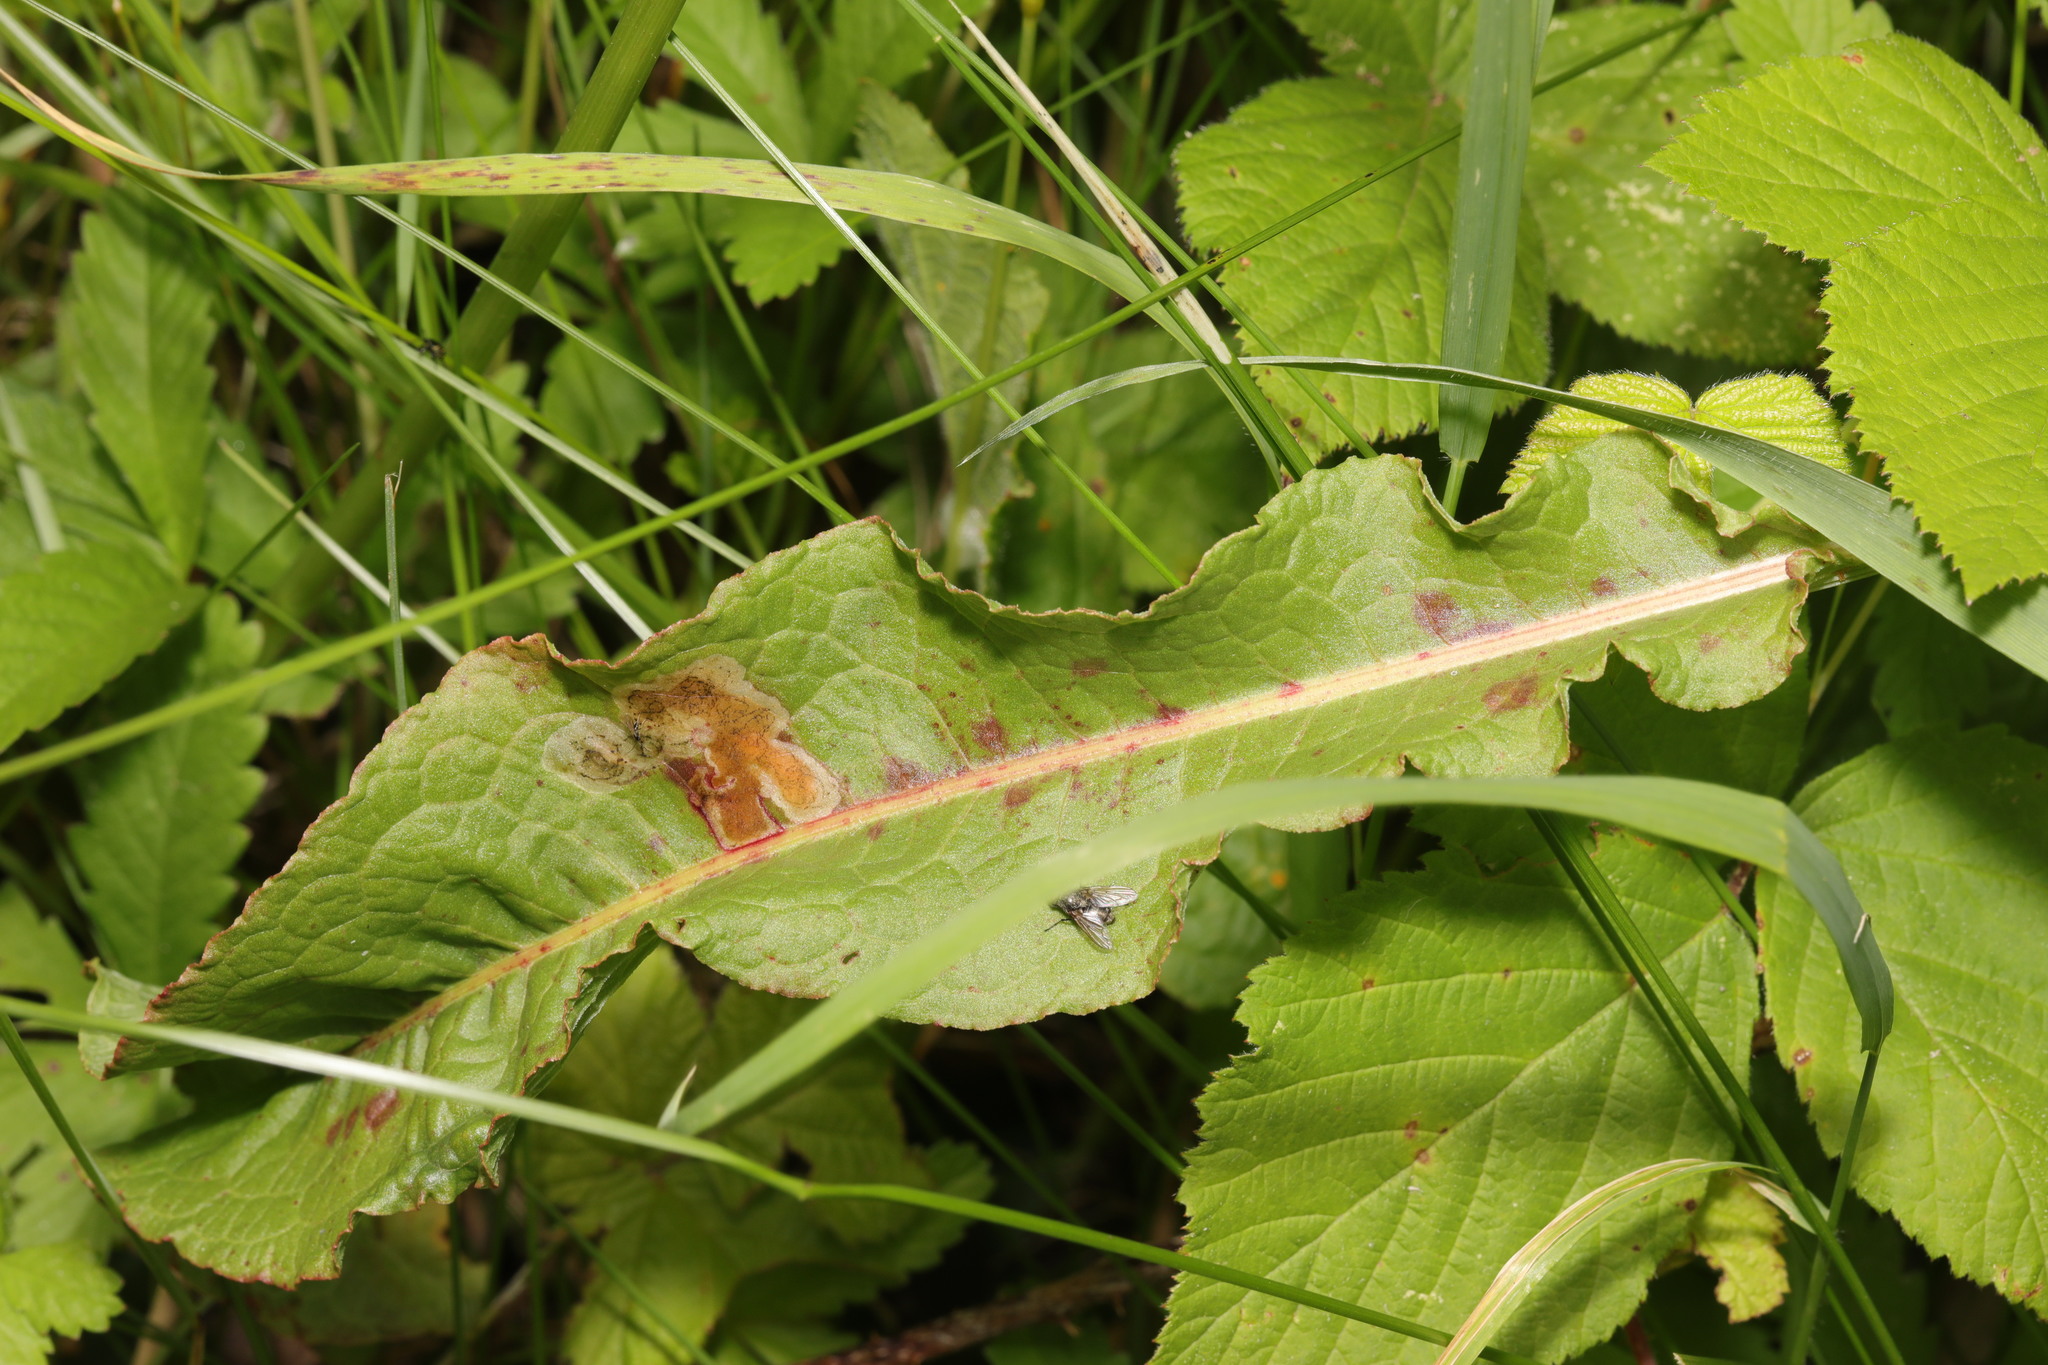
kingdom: Plantae
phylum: Tracheophyta
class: Magnoliopsida
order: Caryophyllales
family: Polygonaceae
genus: Rumex
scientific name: Rumex crispus
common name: Curled dock
